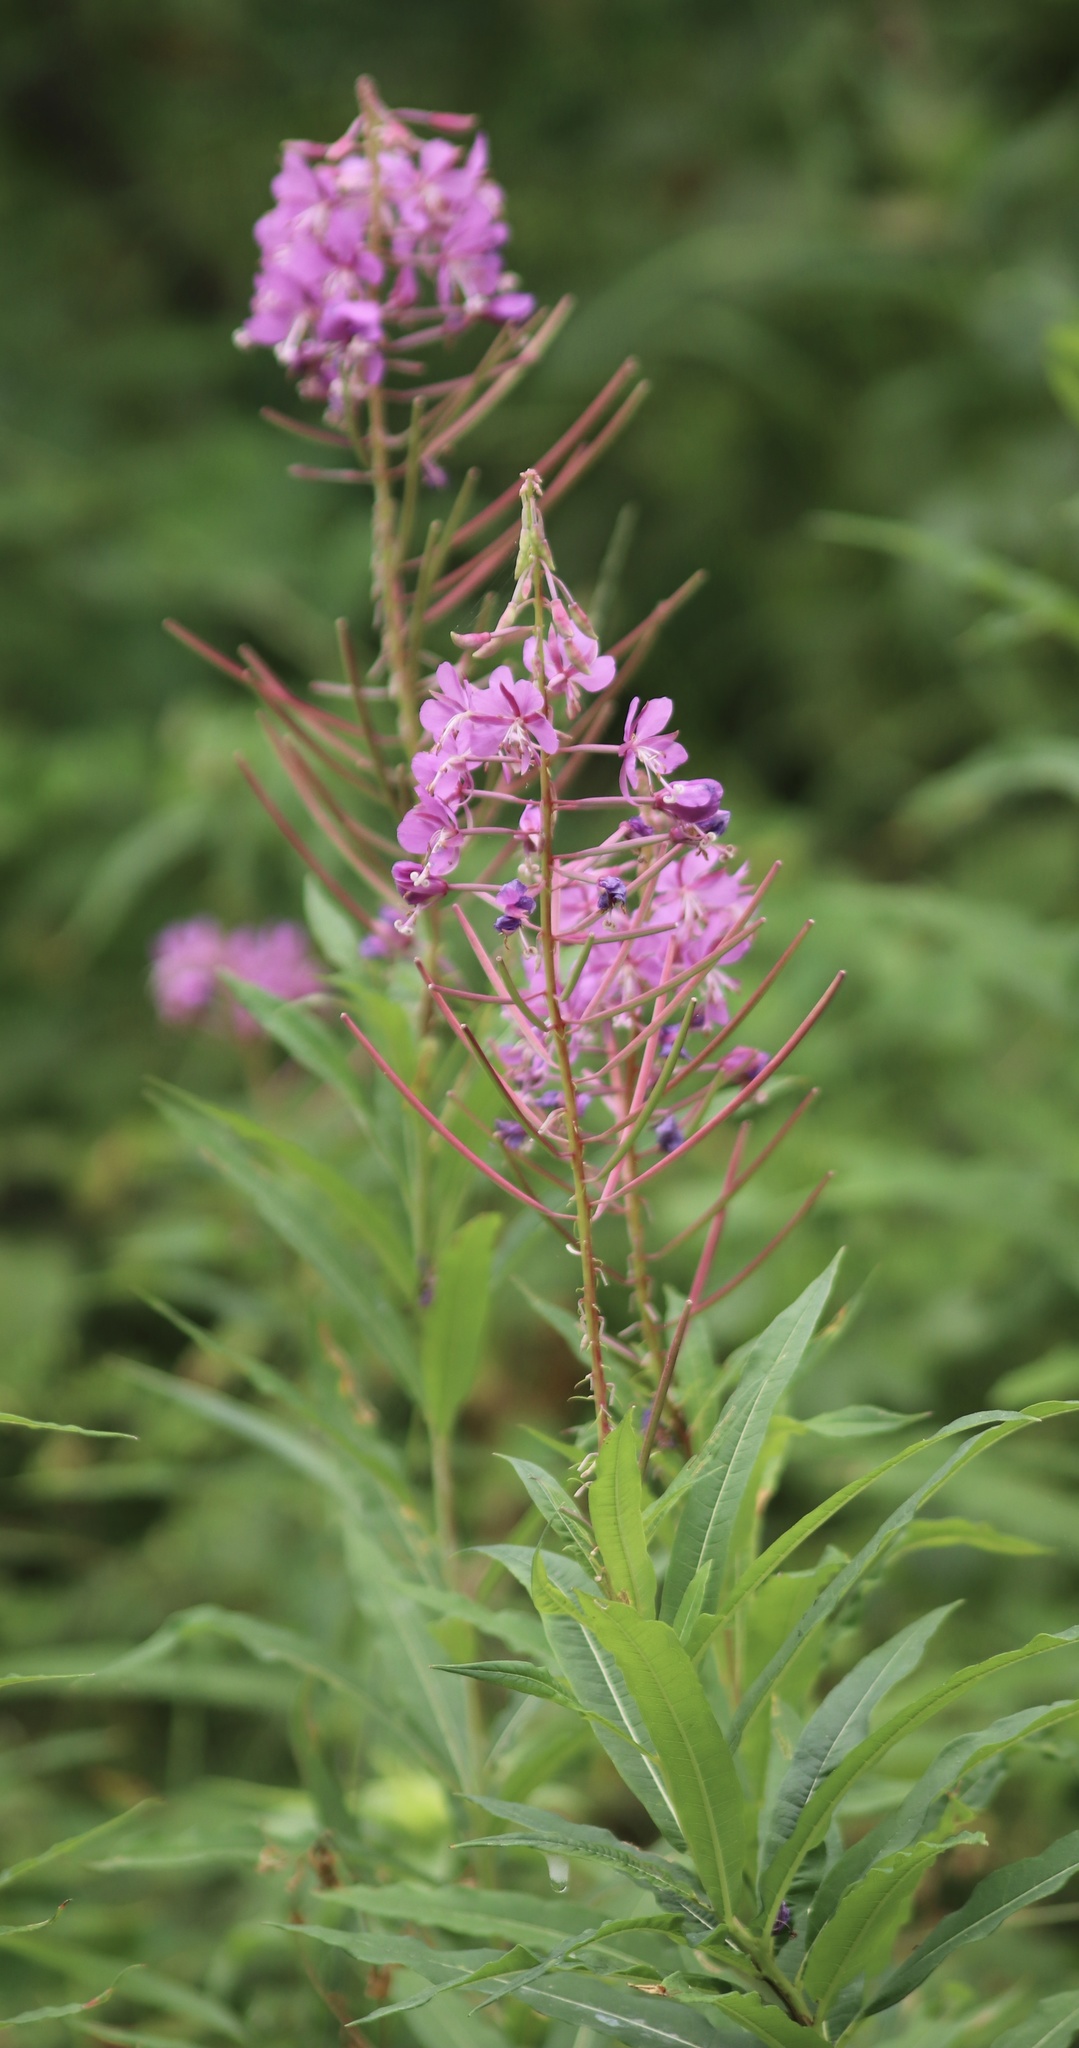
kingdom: Plantae
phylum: Tracheophyta
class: Magnoliopsida
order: Myrtales
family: Onagraceae
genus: Chamaenerion
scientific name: Chamaenerion angustifolium
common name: Fireweed
